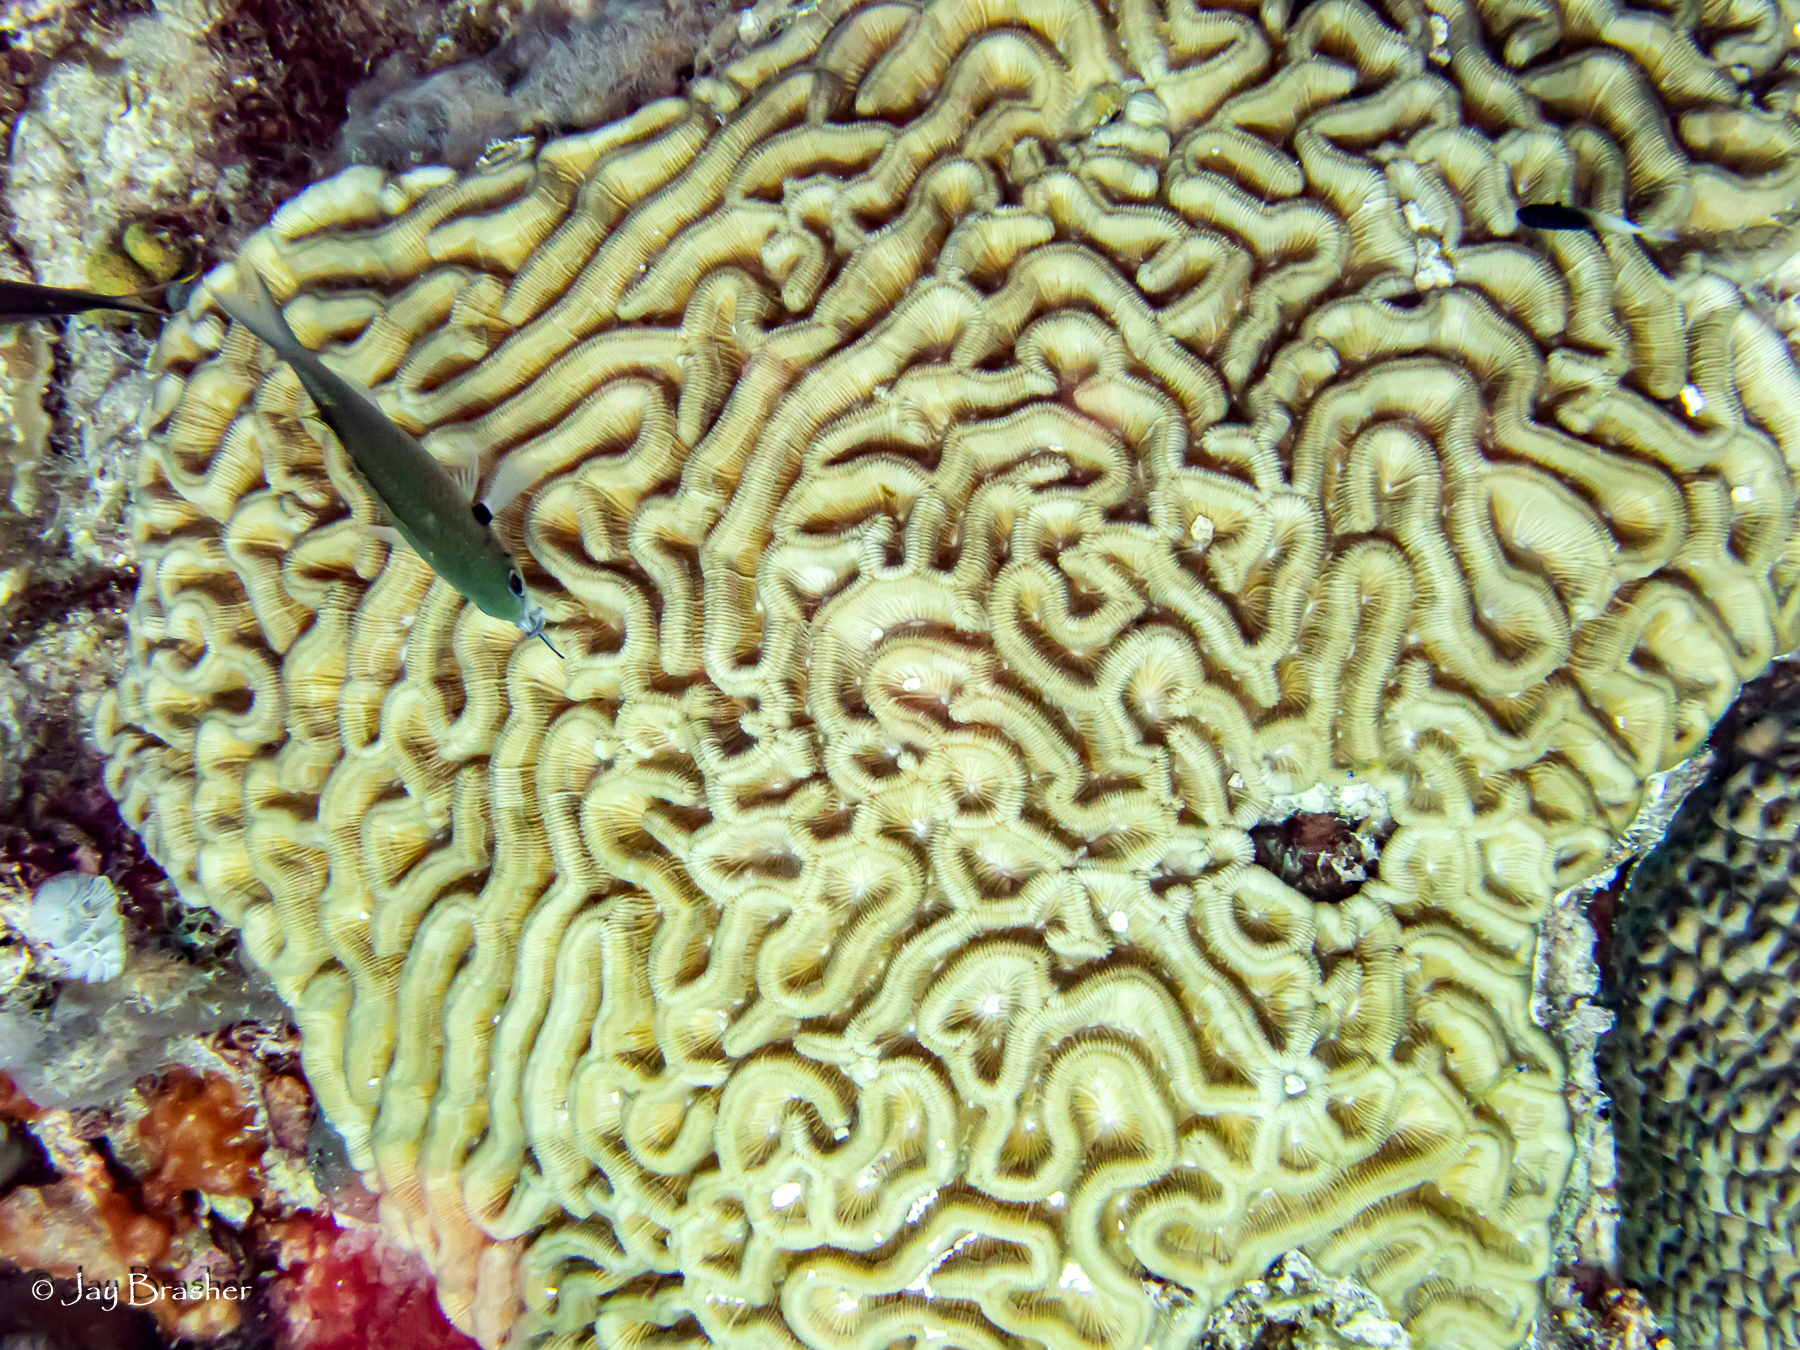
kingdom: Animalia
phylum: Chordata
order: Perciformes
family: Pomacentridae
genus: Chromis
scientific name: Chromis multilineata
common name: Brown chromis
